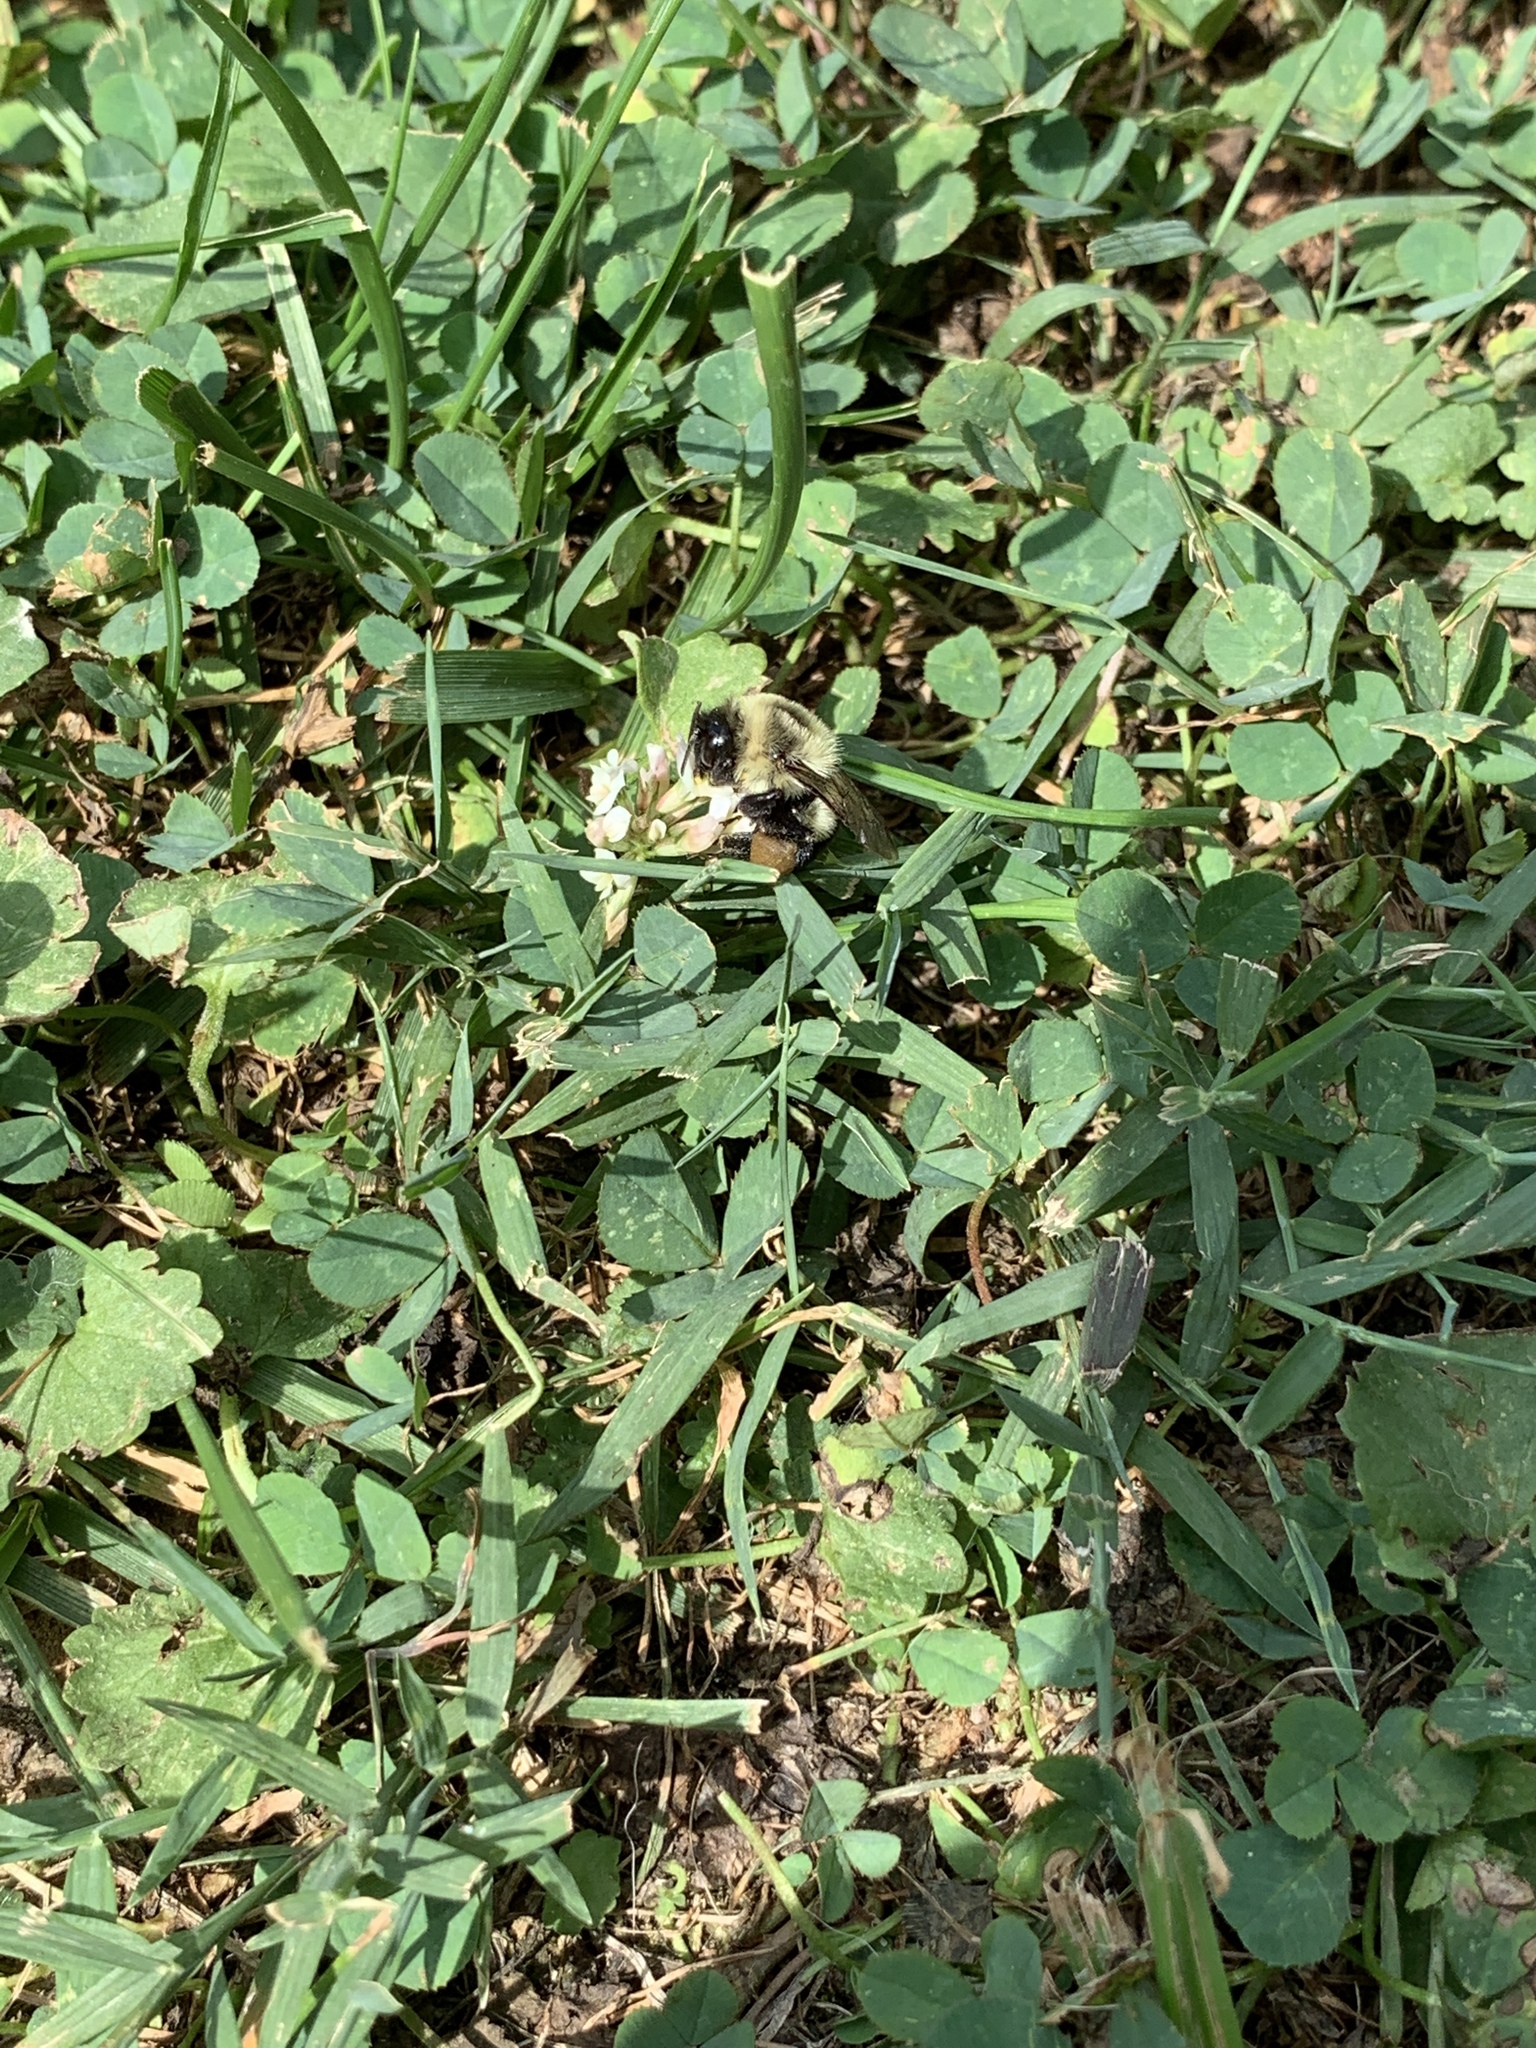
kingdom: Animalia
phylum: Arthropoda
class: Insecta
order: Hymenoptera
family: Apidae
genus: Bombus
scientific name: Bombus impatiens
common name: Common eastern bumble bee
